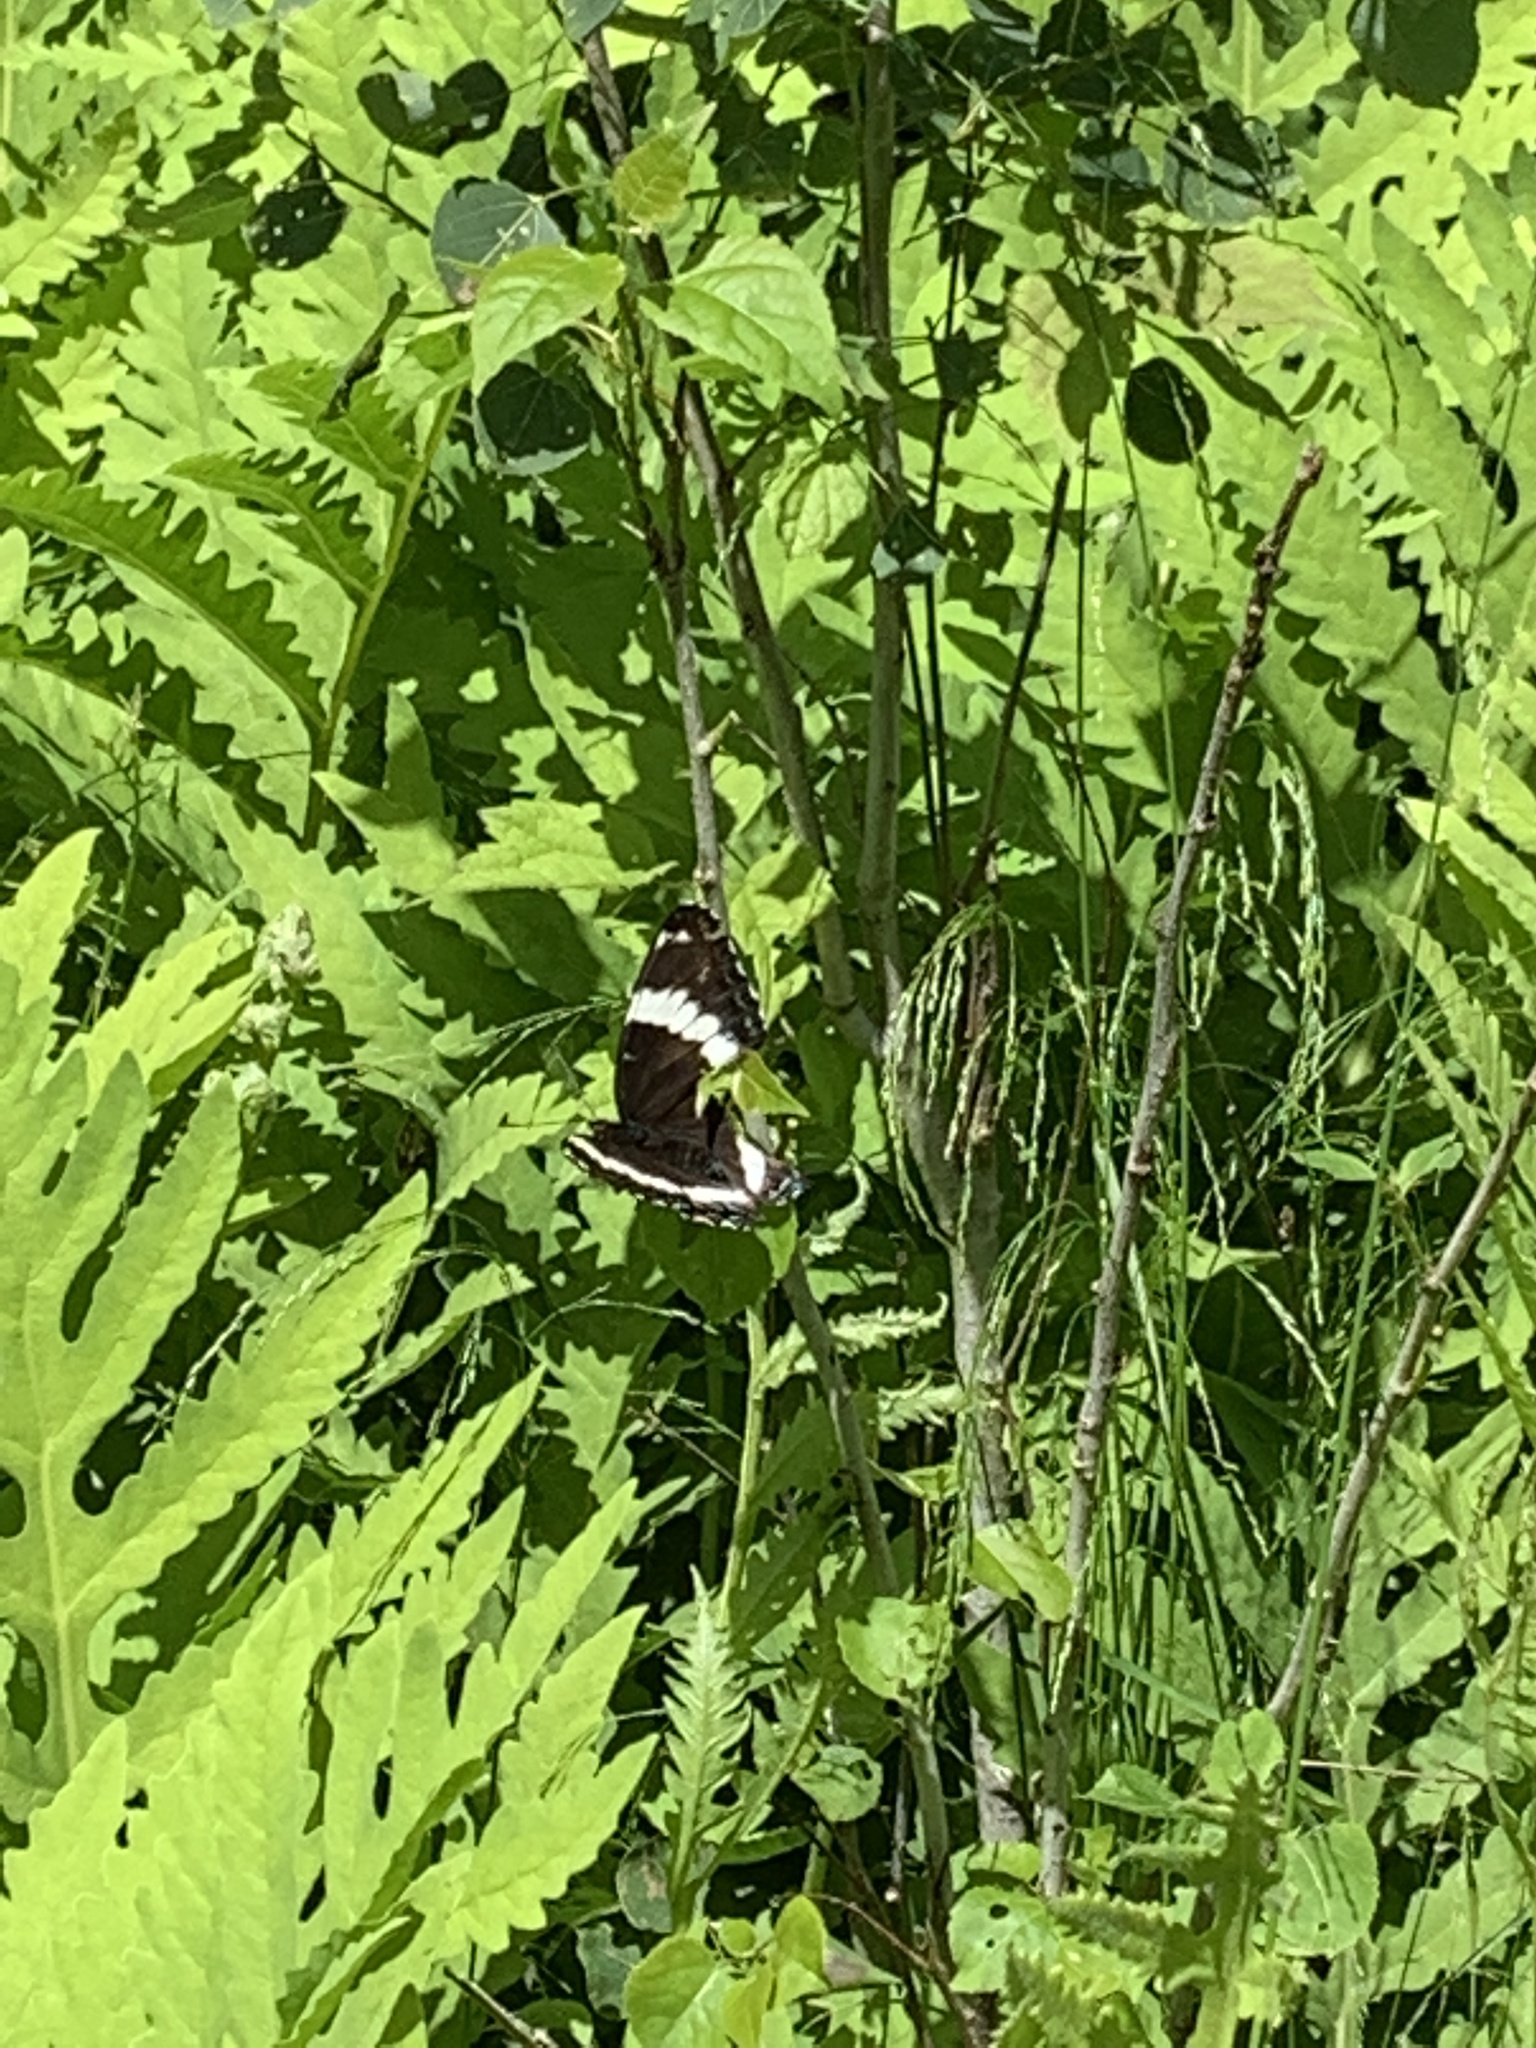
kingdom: Animalia
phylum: Arthropoda
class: Insecta
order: Lepidoptera
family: Nymphalidae
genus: Limenitis
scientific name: Limenitis arthemis
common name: Red-spotted admiral
